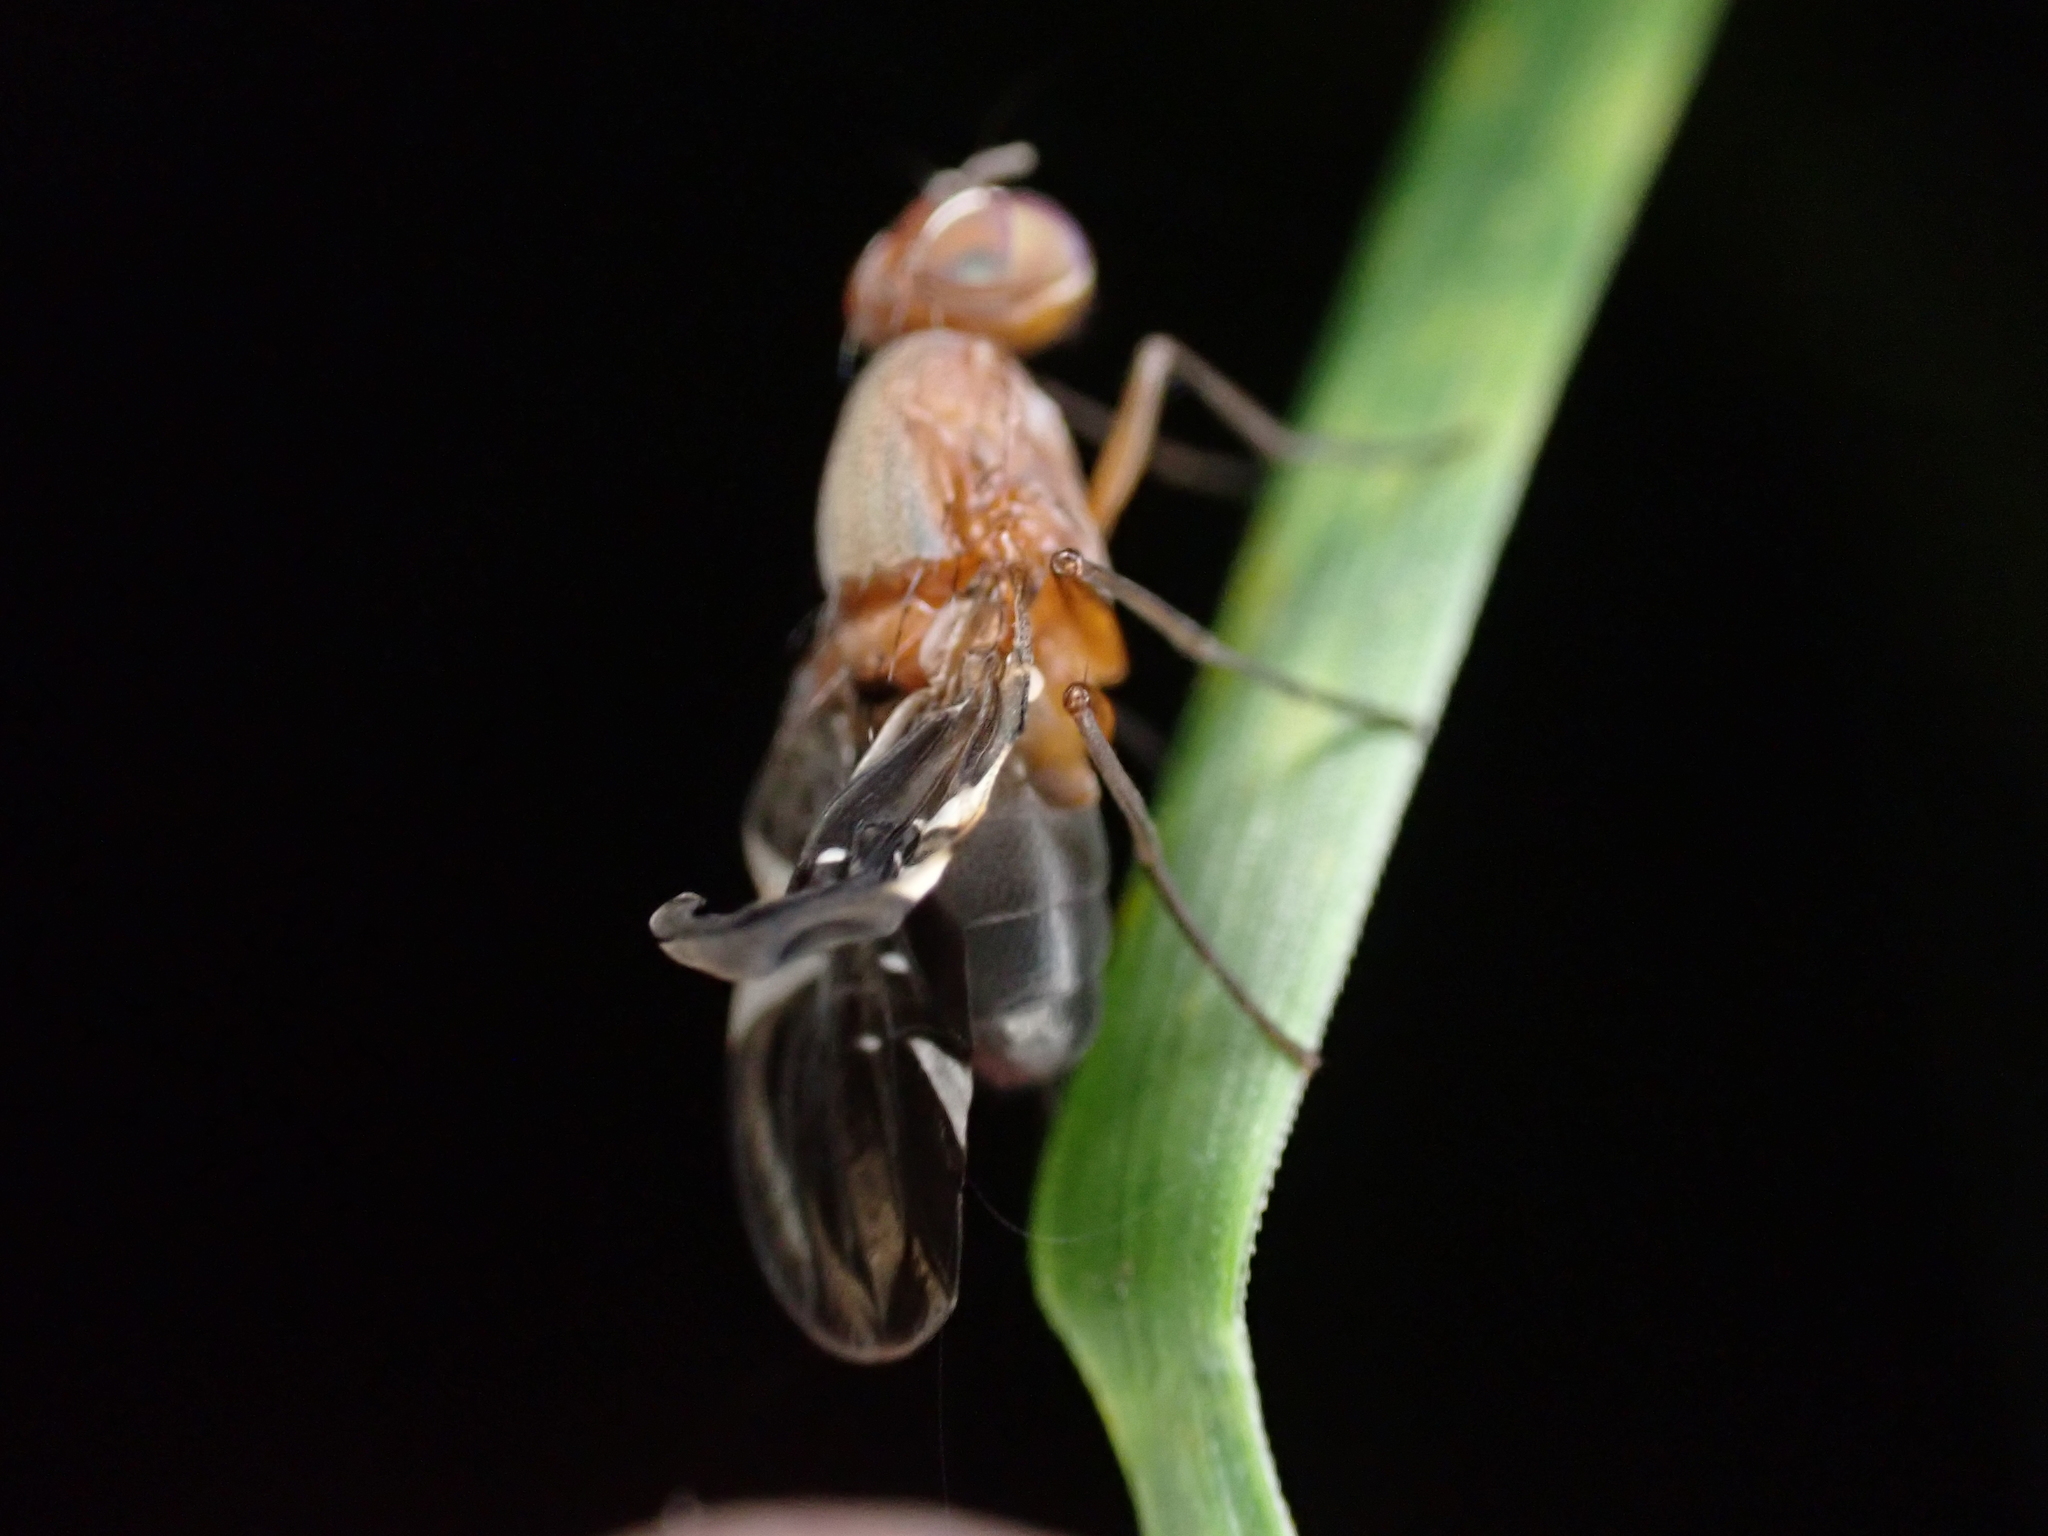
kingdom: Animalia
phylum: Arthropoda
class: Insecta
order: Diptera
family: Ulidiidae
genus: Delphinia
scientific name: Delphinia picta
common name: Common picture-winged fly
